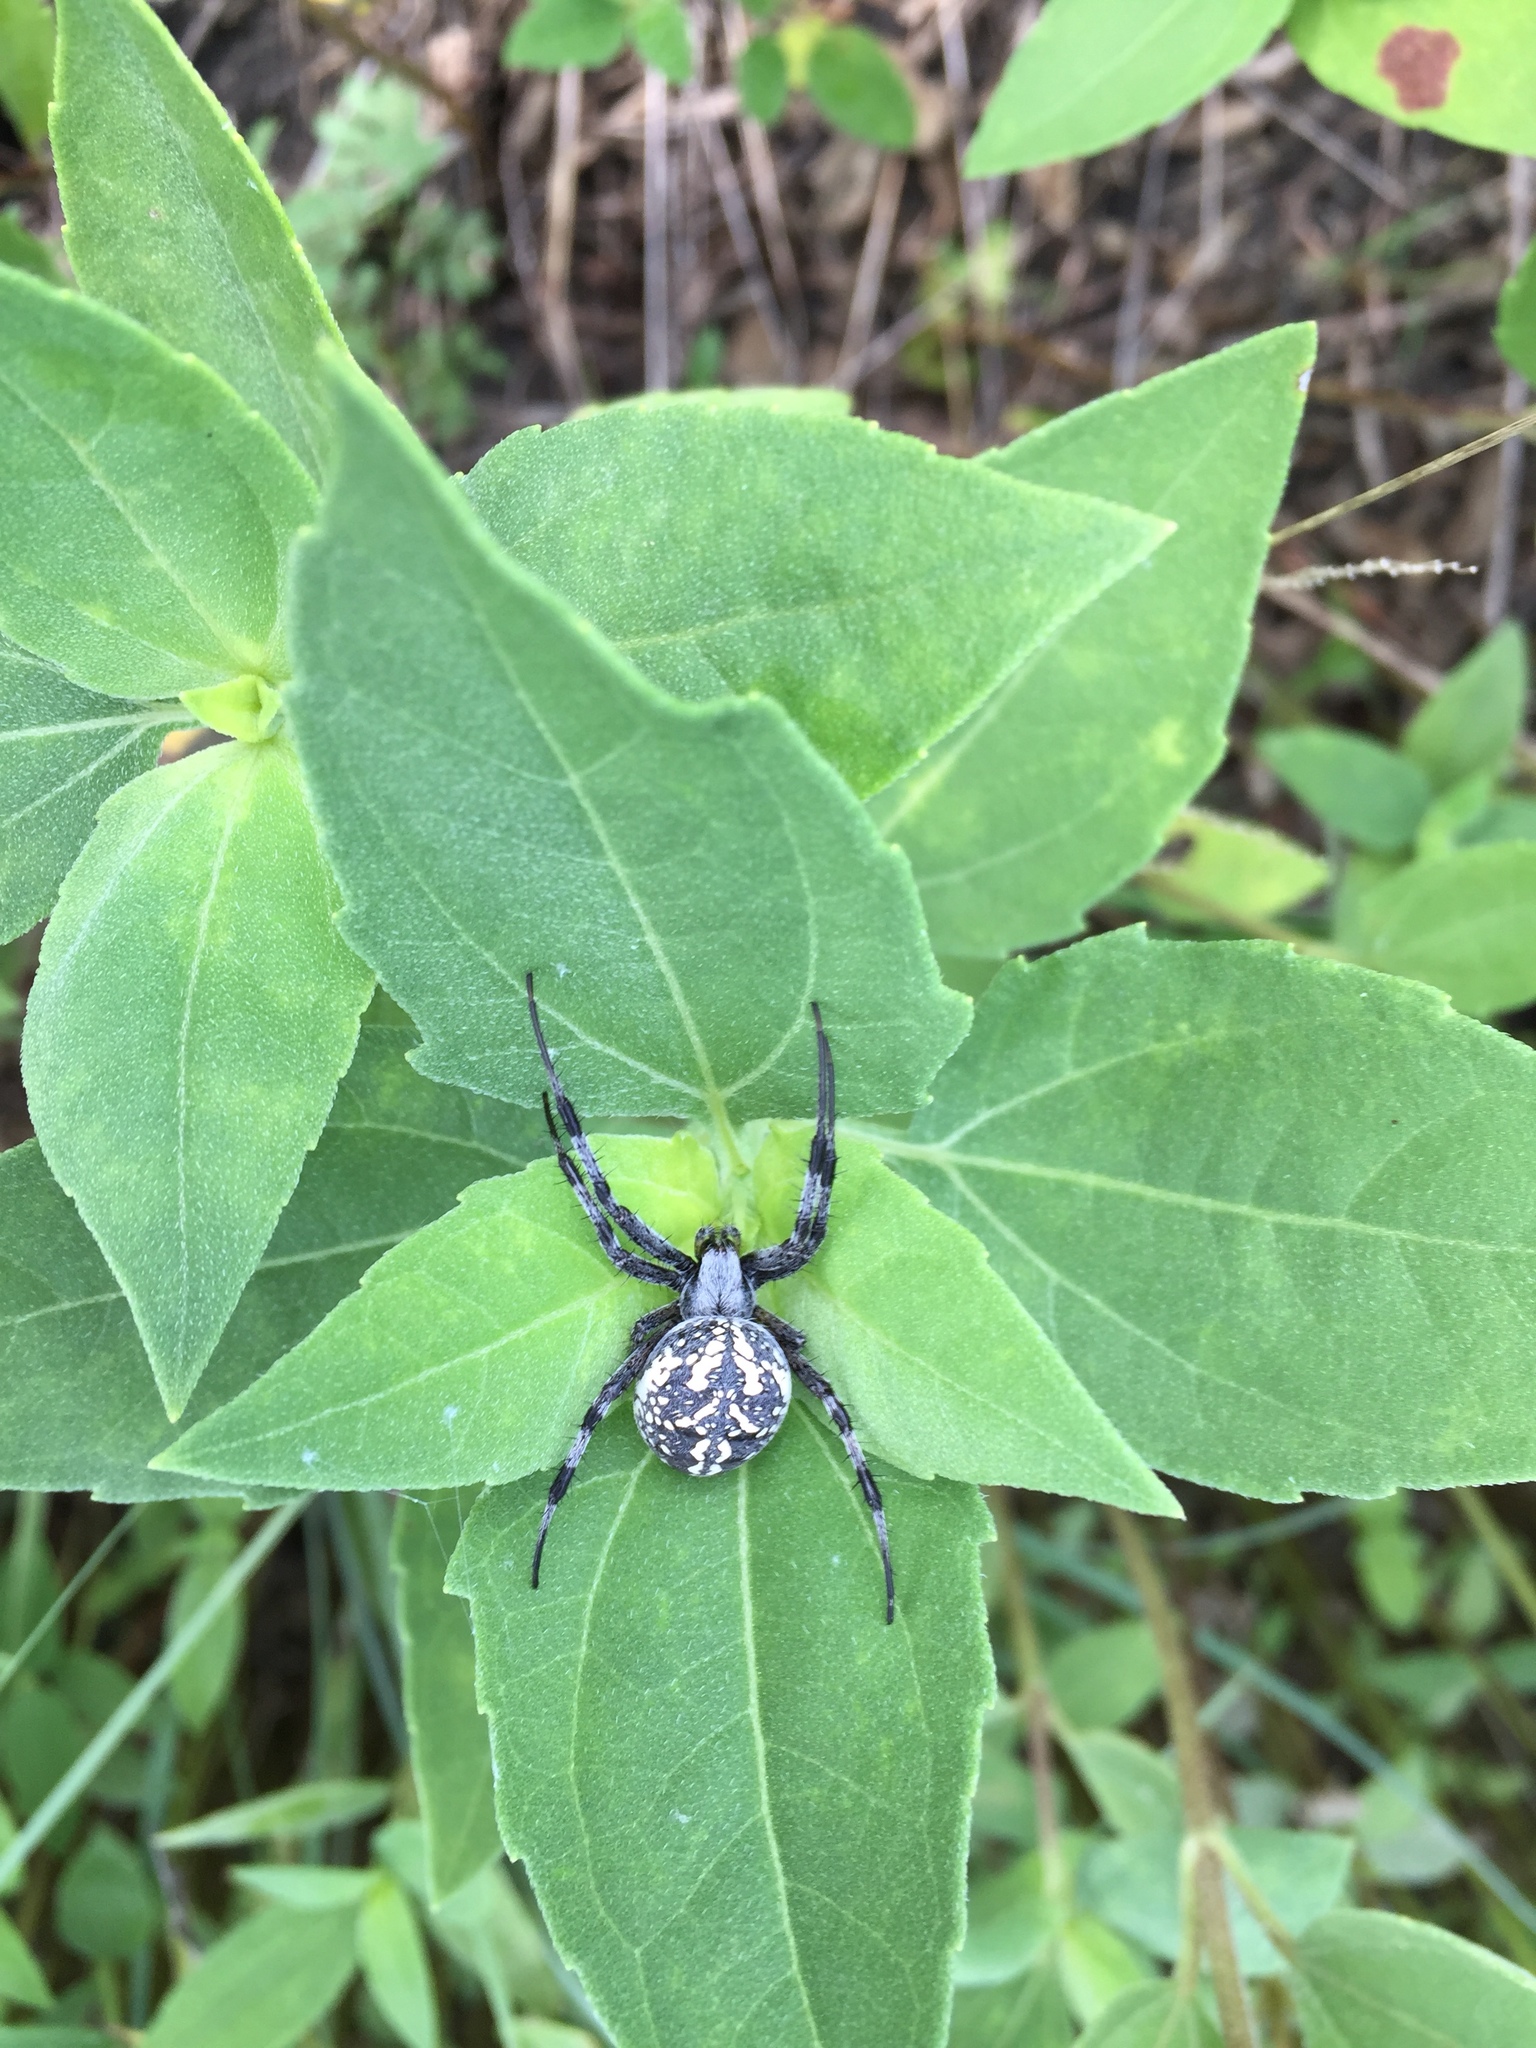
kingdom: Animalia
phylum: Arthropoda
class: Arachnida
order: Araneae
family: Araneidae
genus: Neoscona
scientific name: Neoscona oaxacensis
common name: Orb weavers
